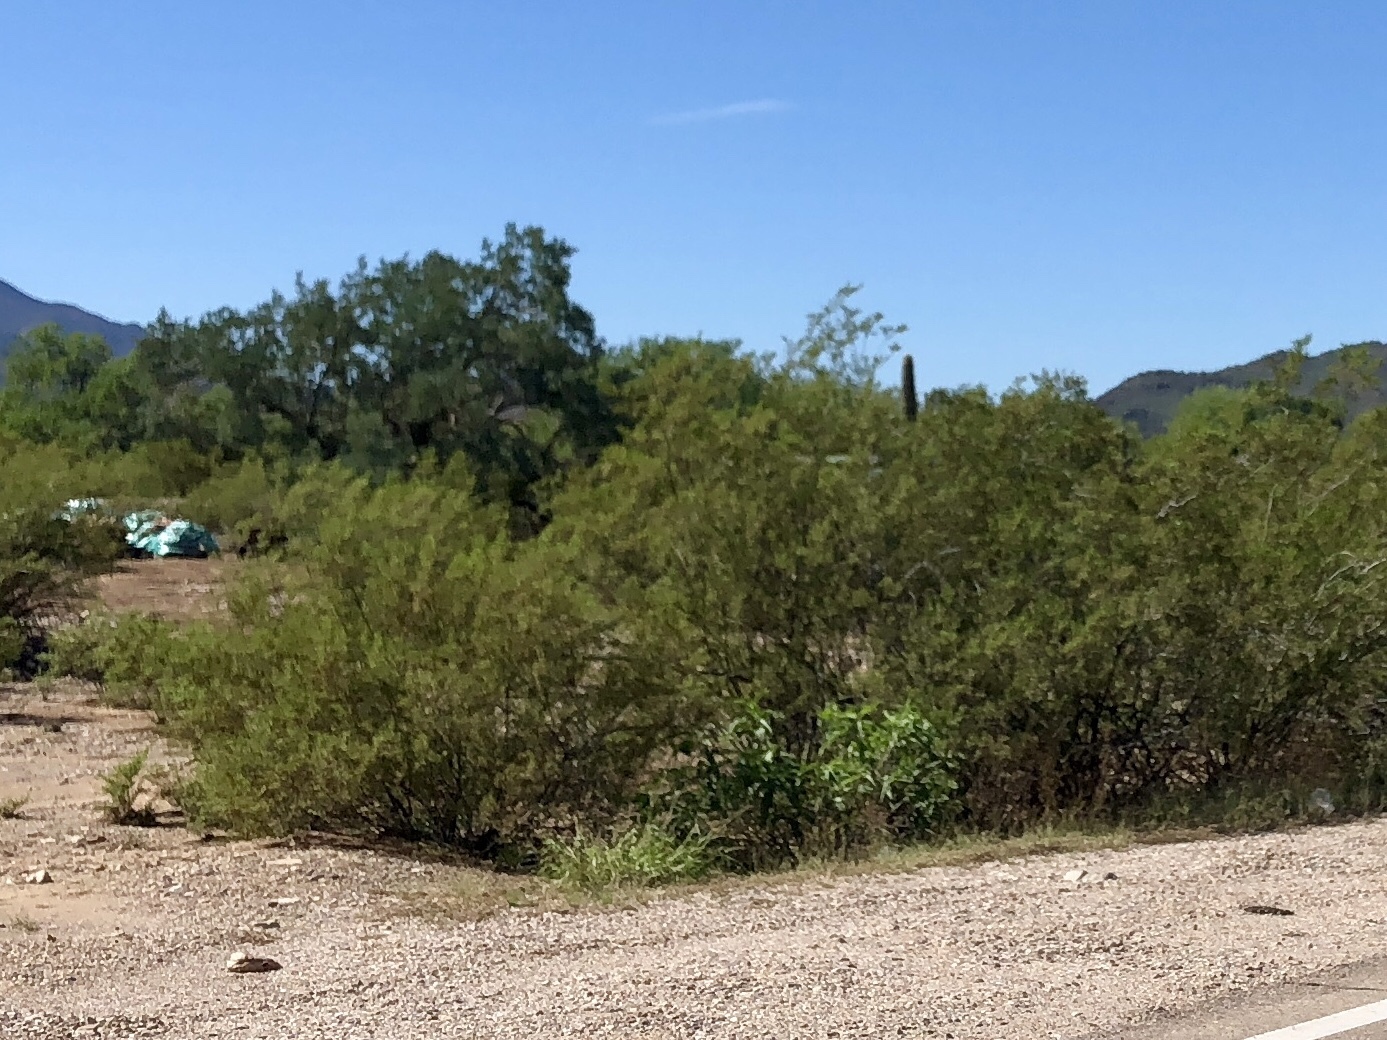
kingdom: Plantae
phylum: Tracheophyta
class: Magnoliopsida
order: Zygophyllales
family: Zygophyllaceae
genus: Larrea
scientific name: Larrea tridentata
